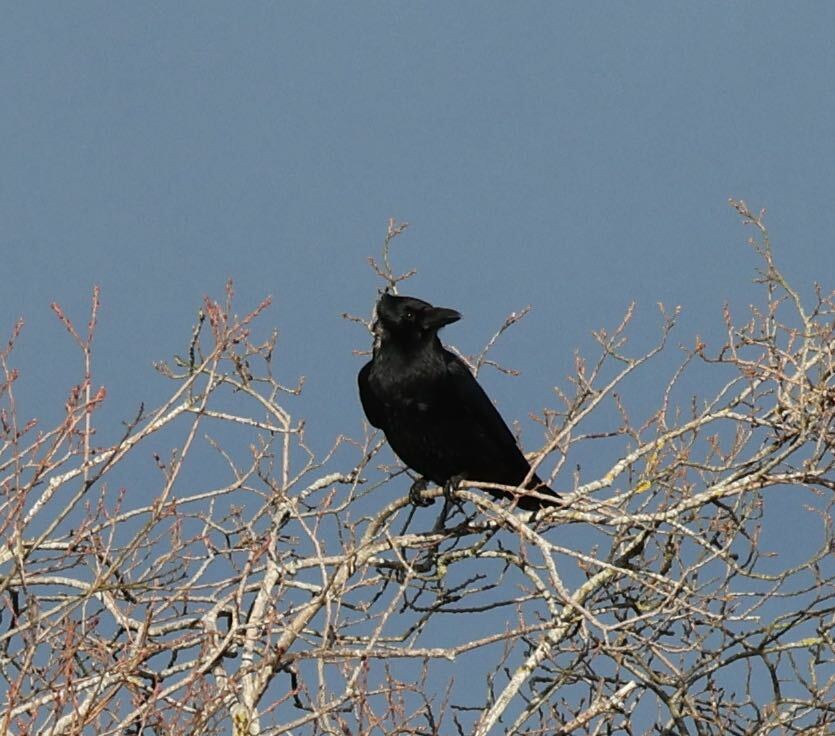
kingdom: Animalia
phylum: Chordata
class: Aves
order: Passeriformes
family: Corvidae
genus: Corvus
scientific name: Corvus corone
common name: Carrion crow
